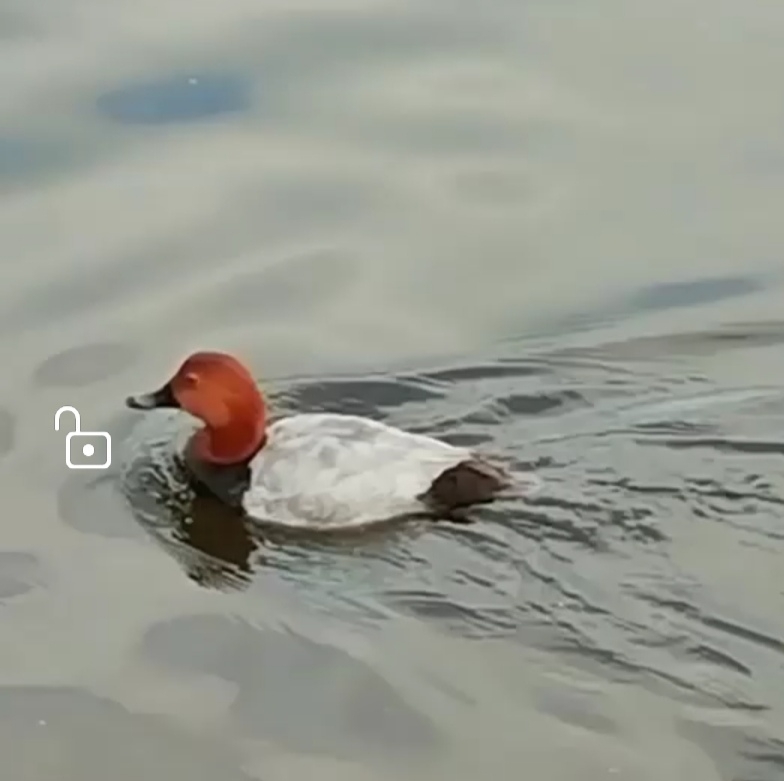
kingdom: Animalia
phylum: Chordata
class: Aves
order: Anseriformes
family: Anatidae
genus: Aythya
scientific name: Aythya ferina
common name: Common pochard
